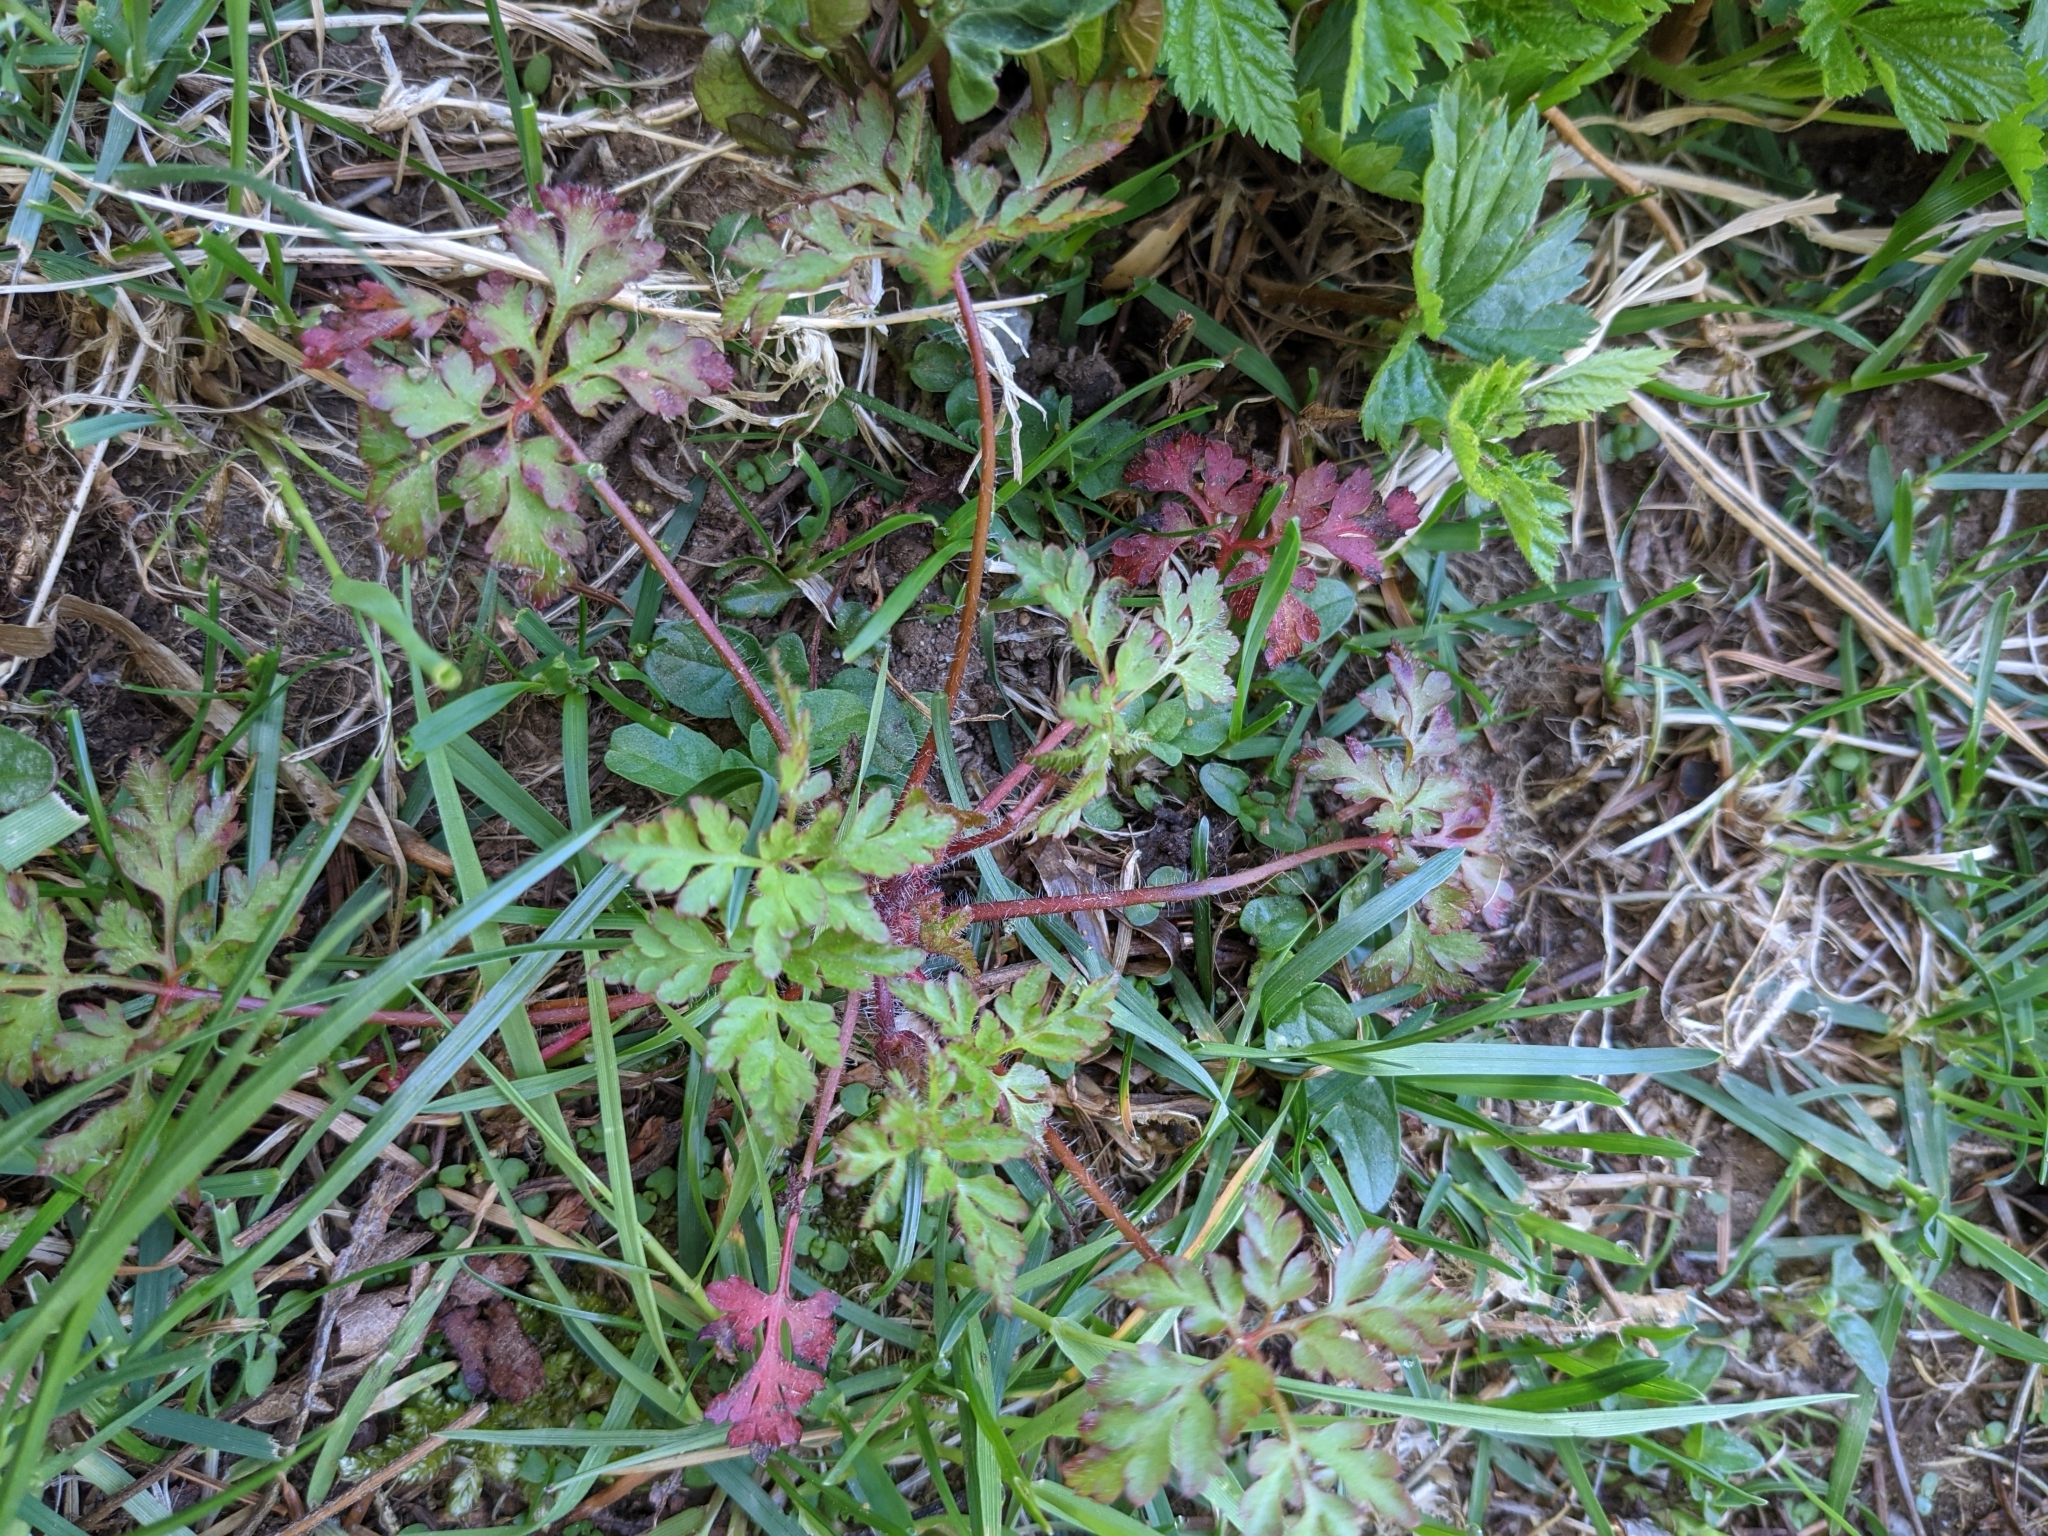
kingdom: Plantae
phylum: Tracheophyta
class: Magnoliopsida
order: Geraniales
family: Geraniaceae
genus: Geranium
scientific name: Geranium robertianum
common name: Herb-robert
